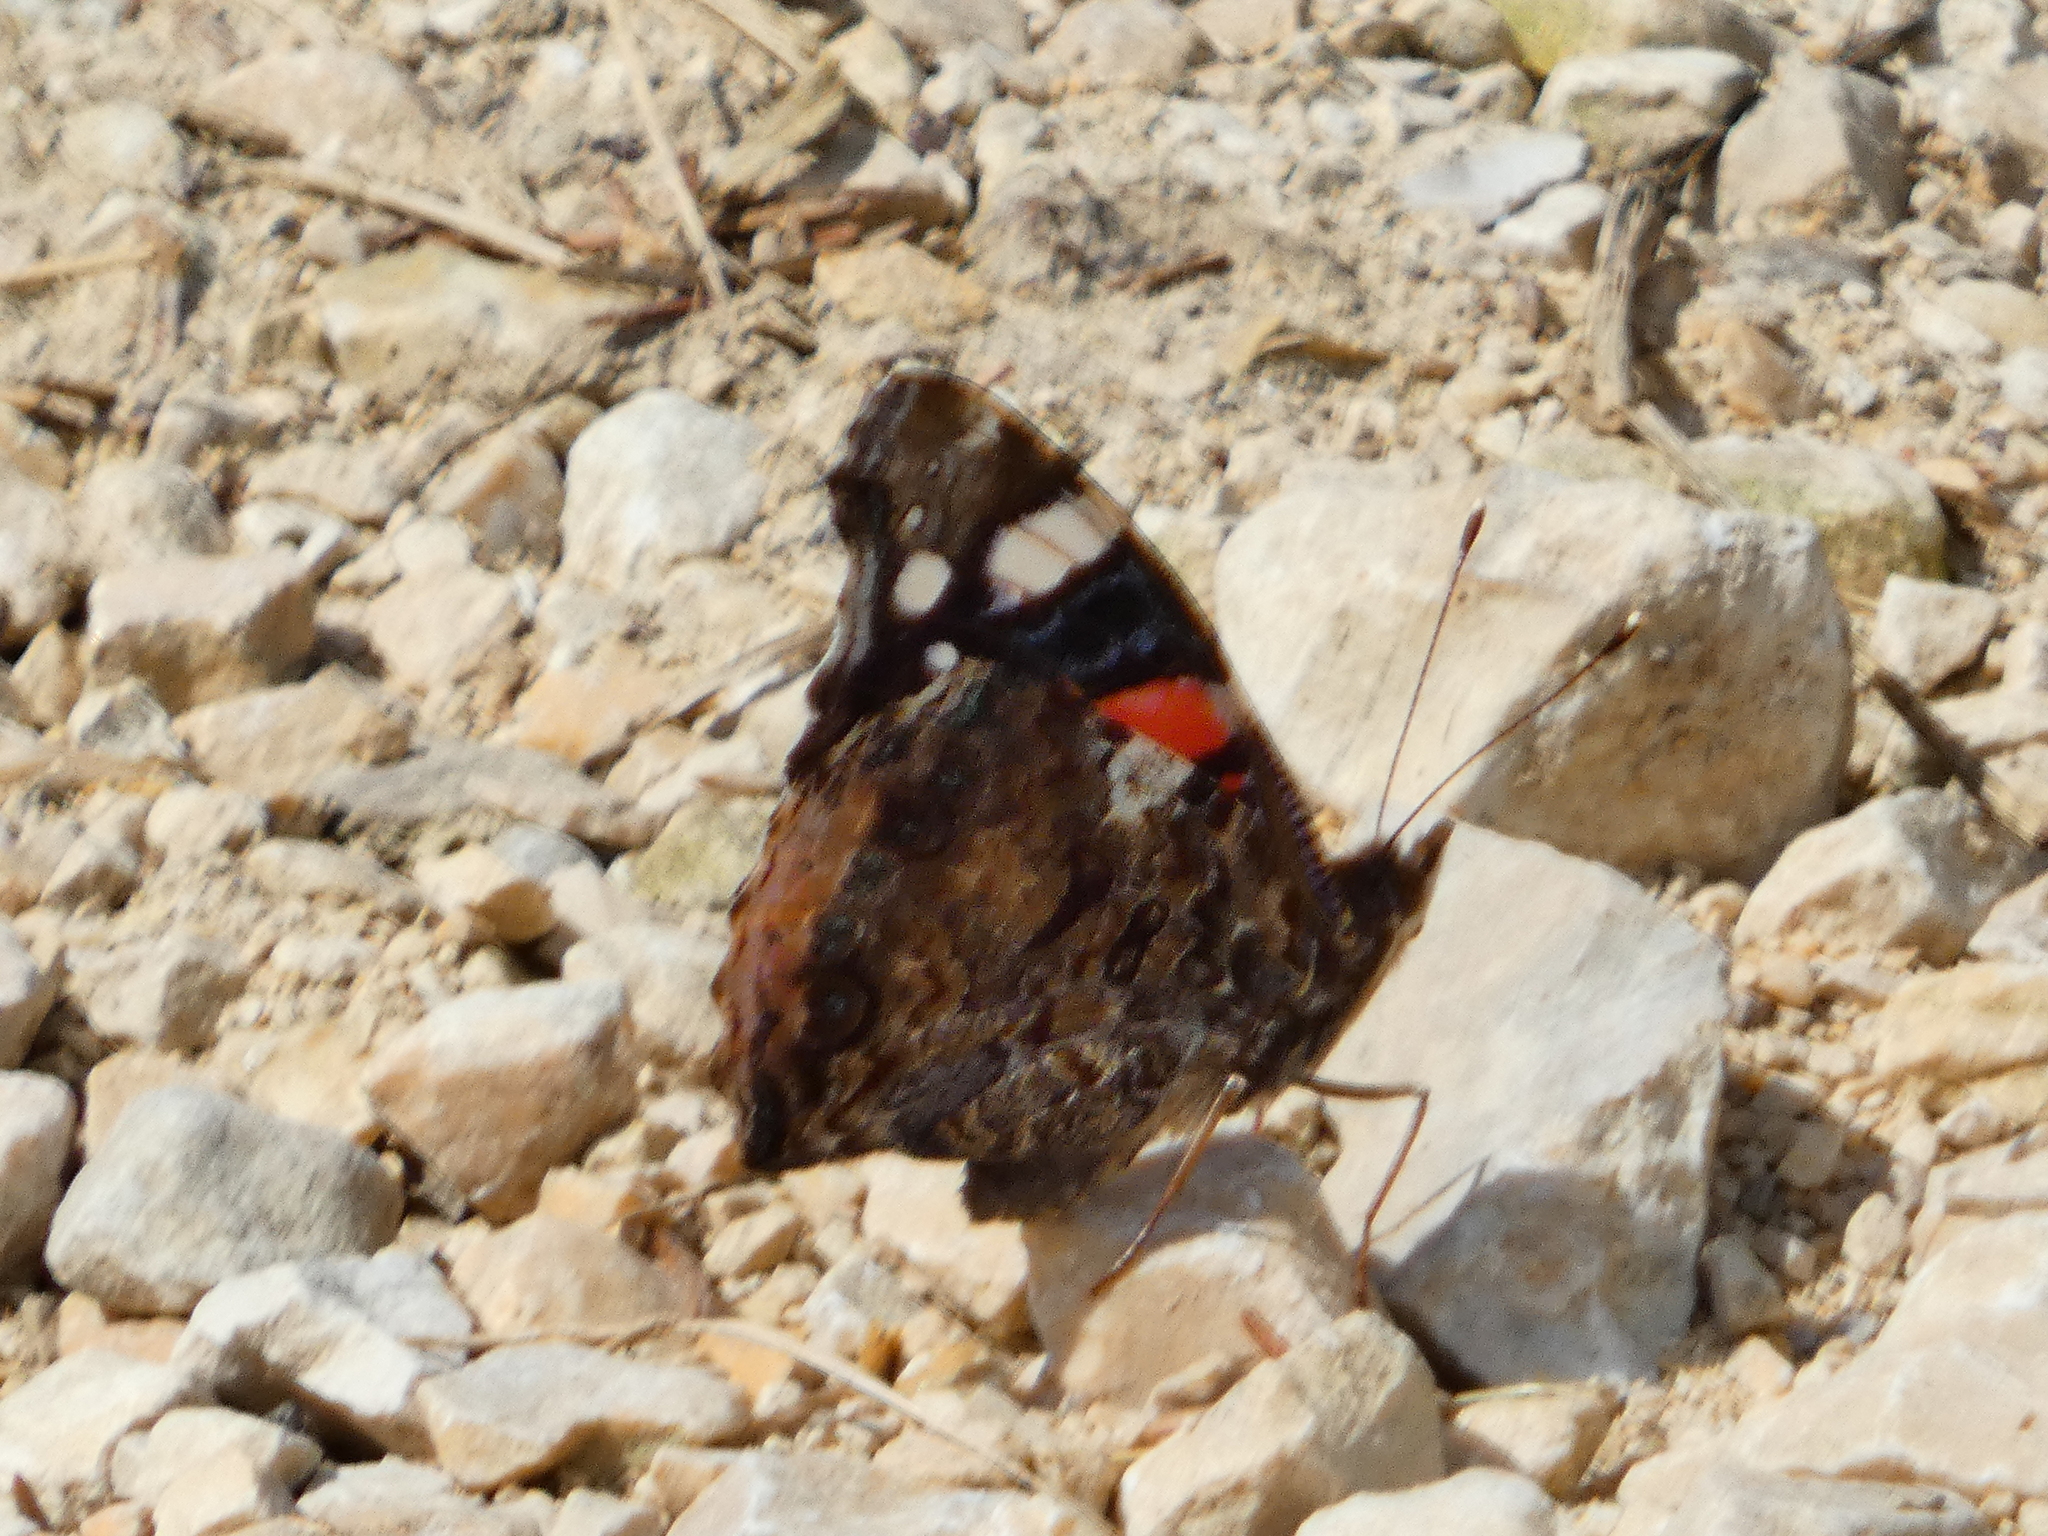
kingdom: Animalia
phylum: Arthropoda
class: Insecta
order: Lepidoptera
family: Nymphalidae
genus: Vanessa
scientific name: Vanessa atalanta
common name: Red admiral
